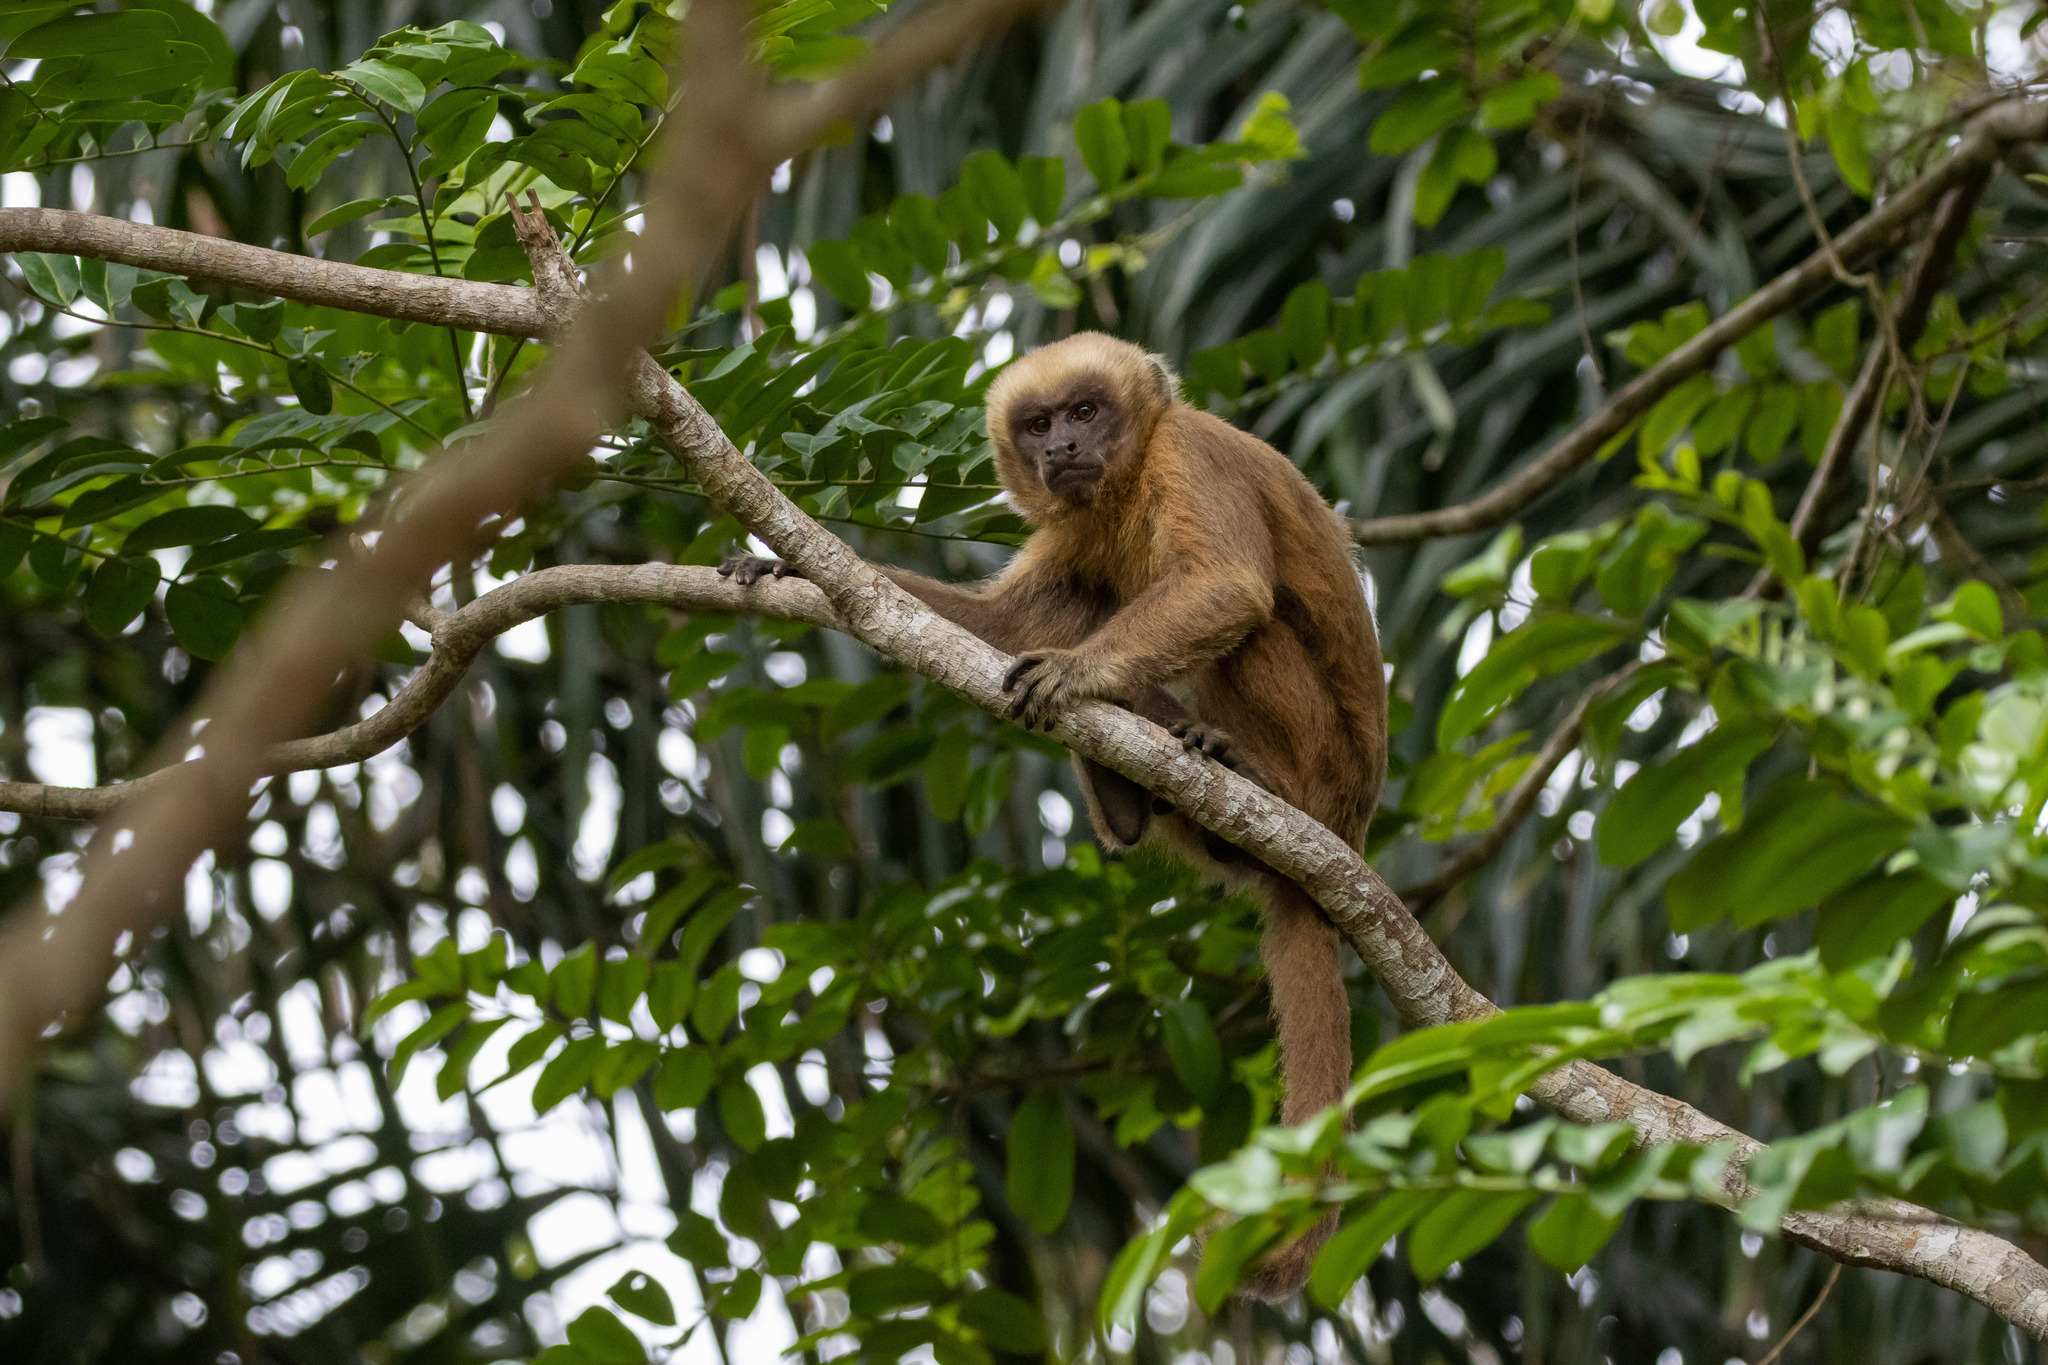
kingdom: Animalia
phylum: Chordata
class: Mammalia
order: Primates
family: Cebidae
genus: Sapajus
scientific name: Sapajus flavius
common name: Blond capuchin
